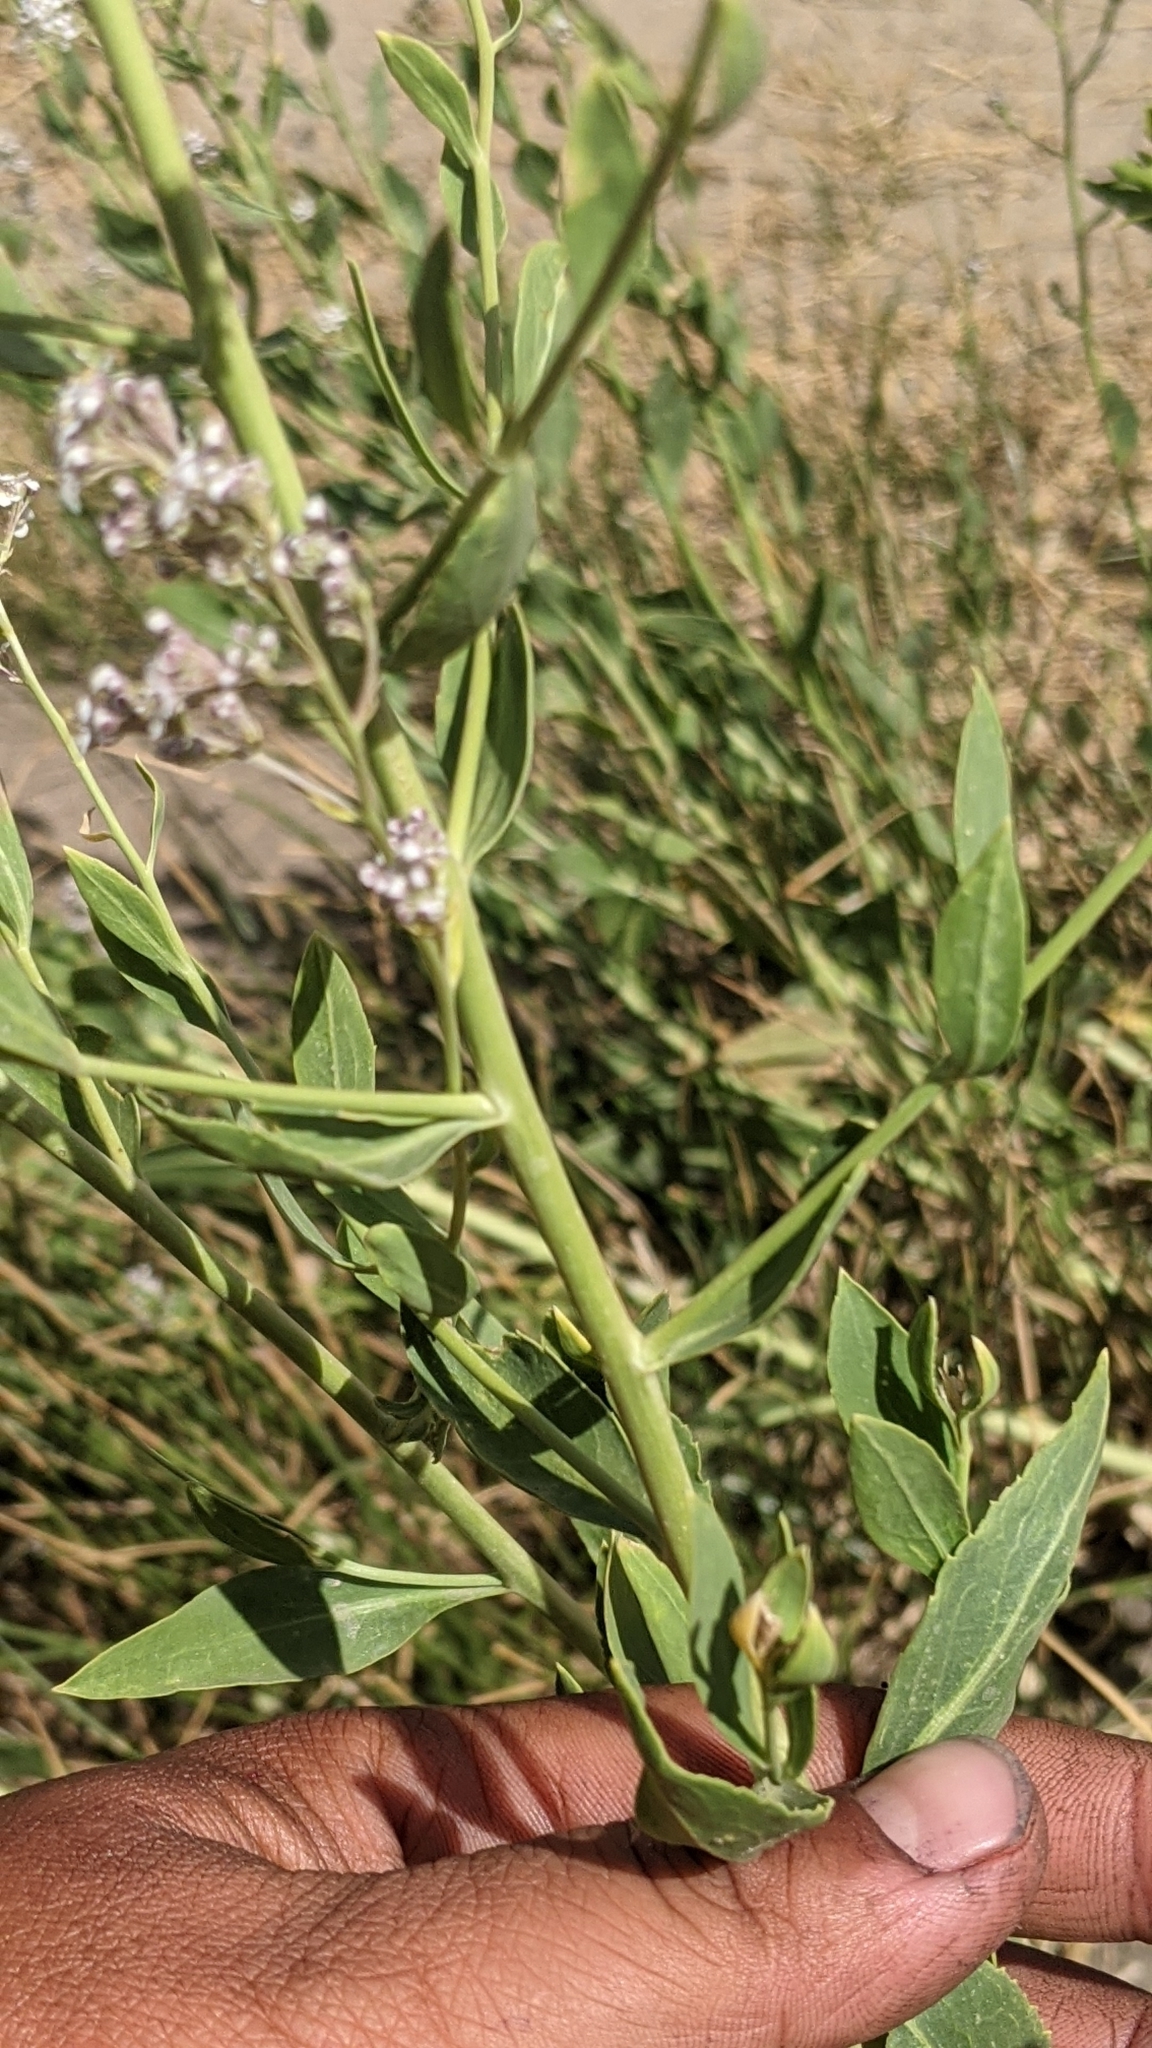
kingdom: Plantae
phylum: Tracheophyta
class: Magnoliopsida
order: Brassicales
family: Brassicaceae
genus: Lepidium
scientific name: Lepidium latifolium
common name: Dittander
